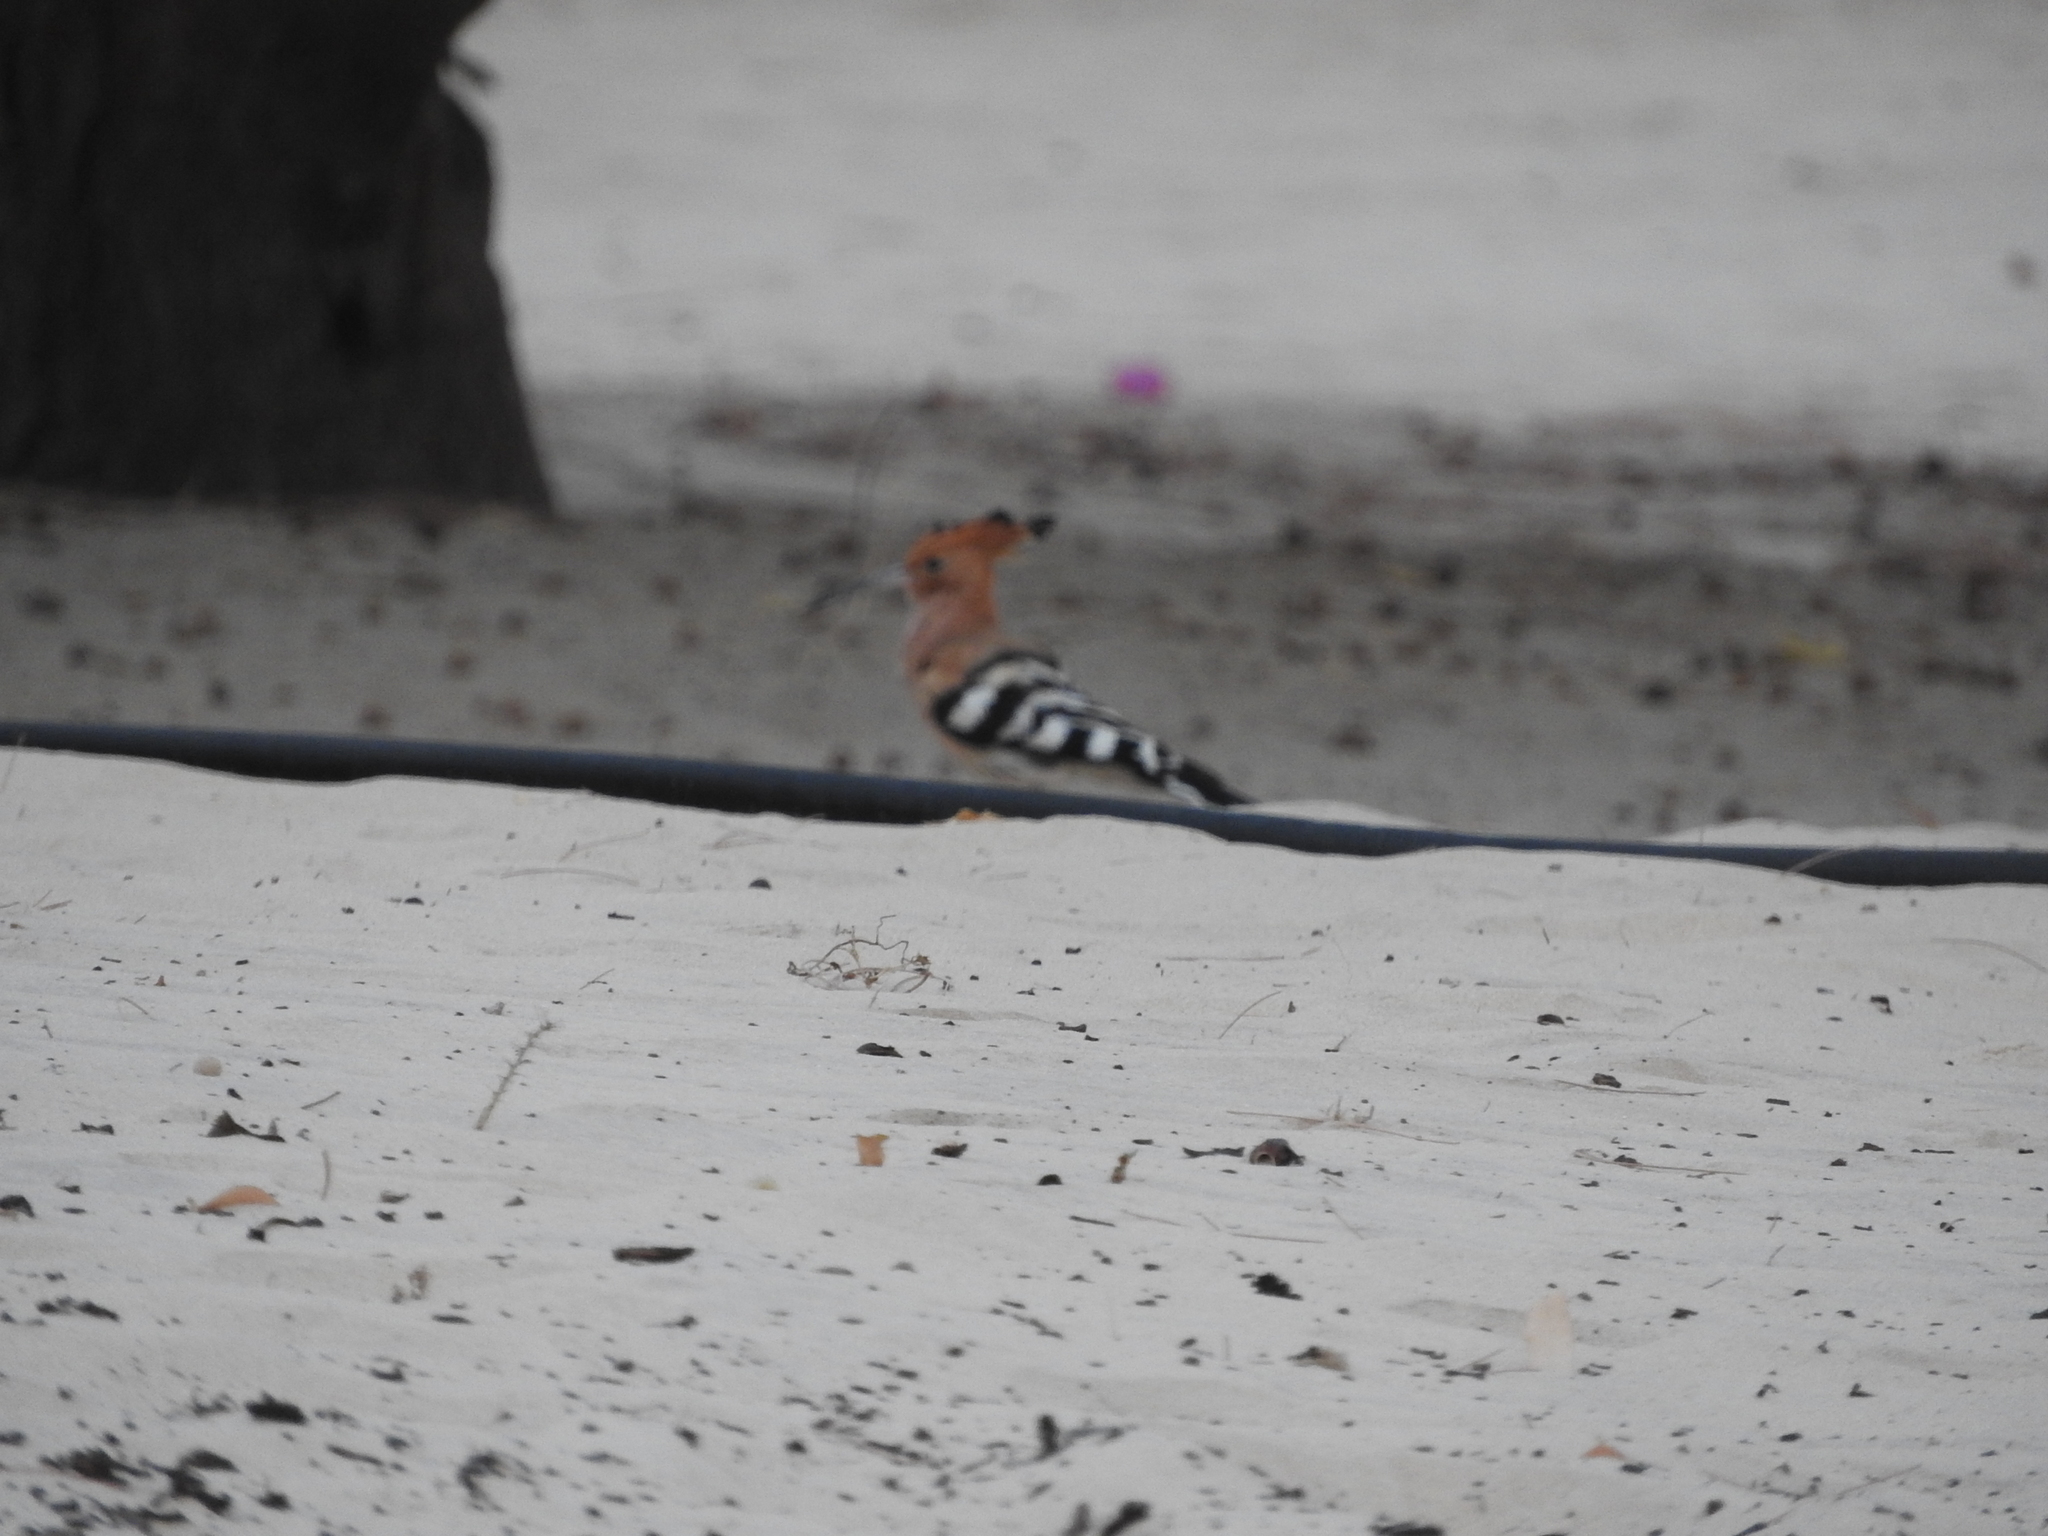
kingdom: Animalia
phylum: Chordata
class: Aves
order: Bucerotiformes
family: Upupidae
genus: Upupa
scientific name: Upupa epops
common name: Eurasian hoopoe
